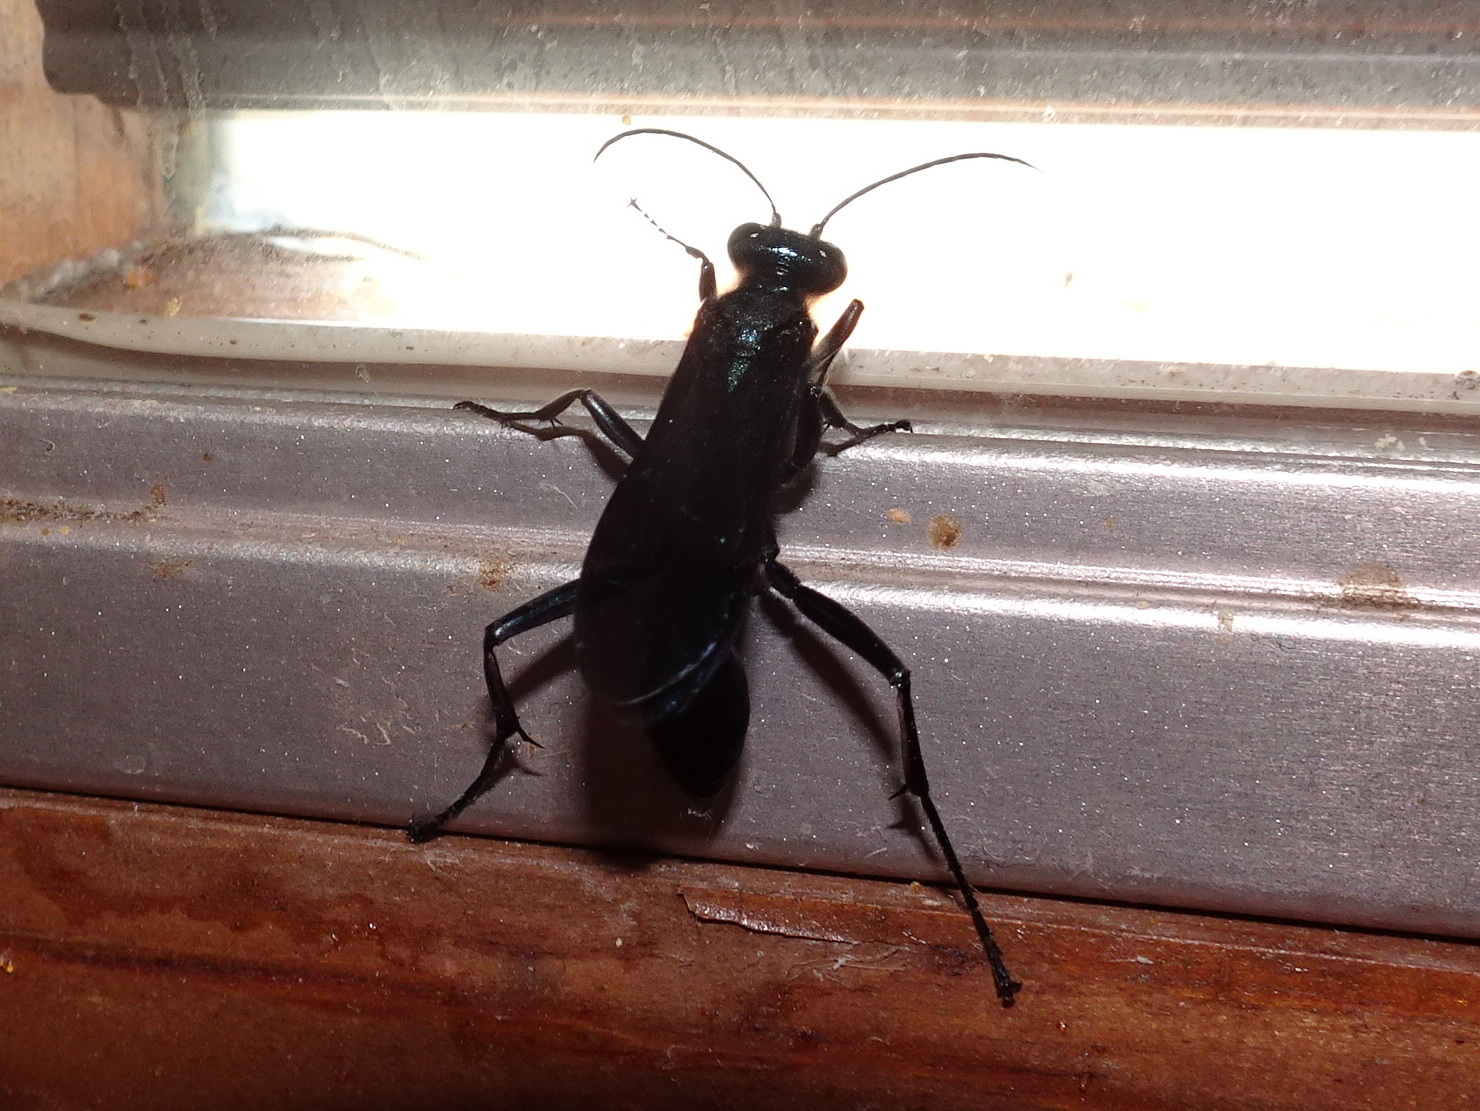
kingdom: Animalia
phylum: Arthropoda
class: Insecta
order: Hymenoptera
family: Sphecidae
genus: Chalybion
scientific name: Chalybion californicum
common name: Mud dauber
